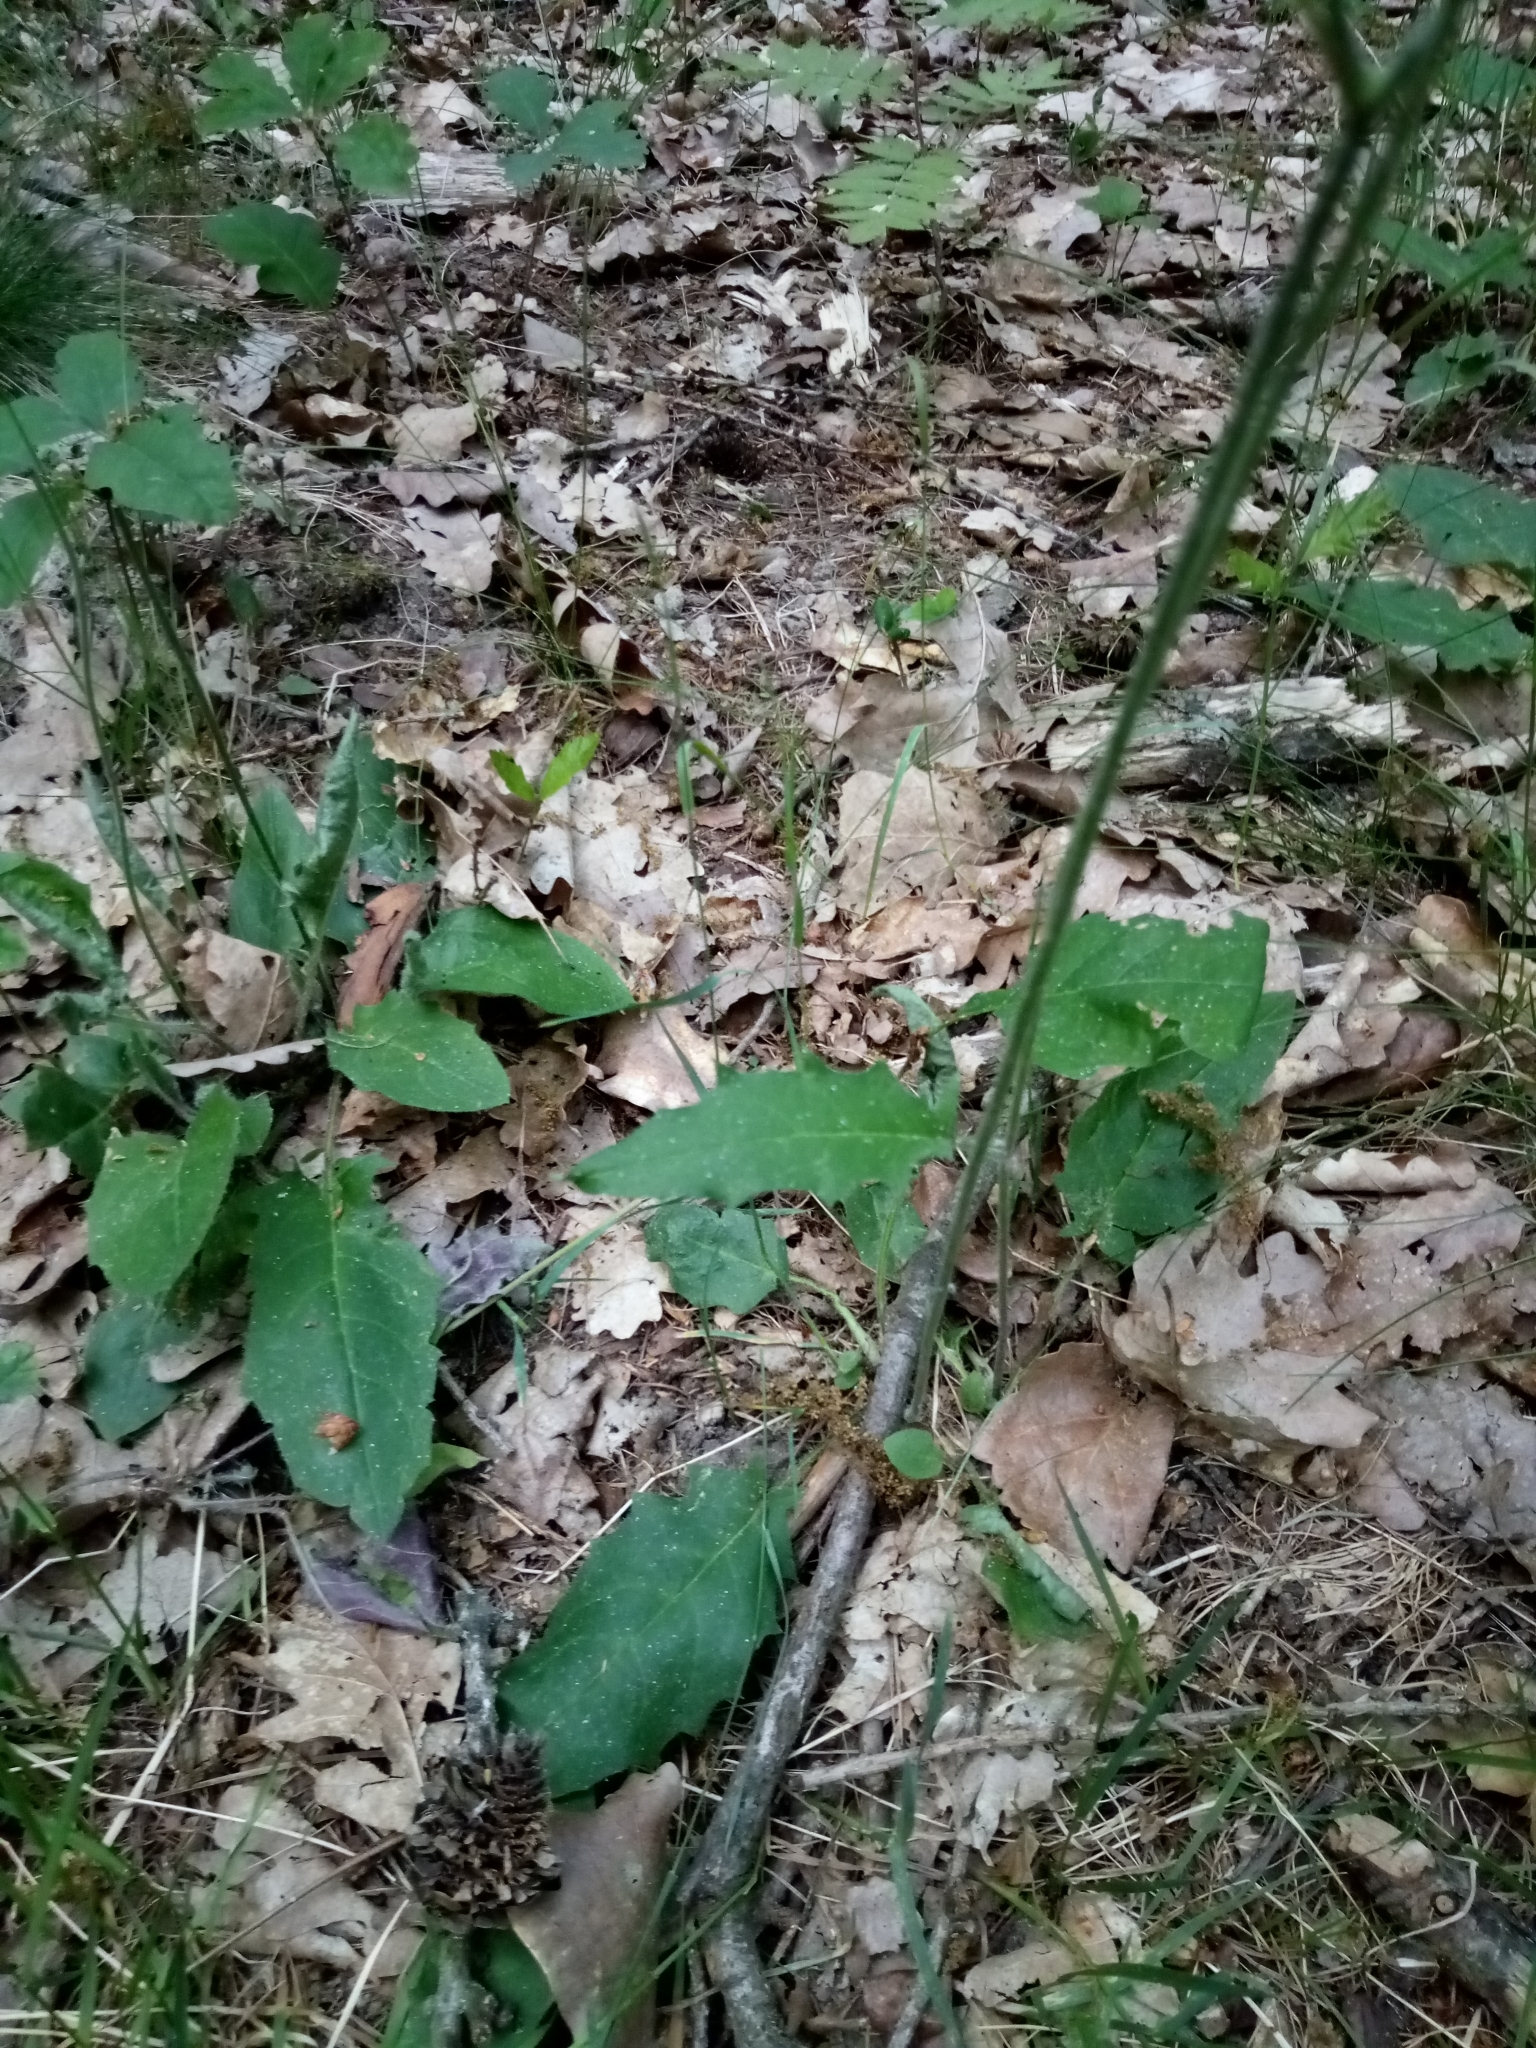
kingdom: Plantae
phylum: Tracheophyta
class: Magnoliopsida
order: Asterales
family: Asteraceae
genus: Hieracium
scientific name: Hieracium murorum
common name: Wall hawkweed
